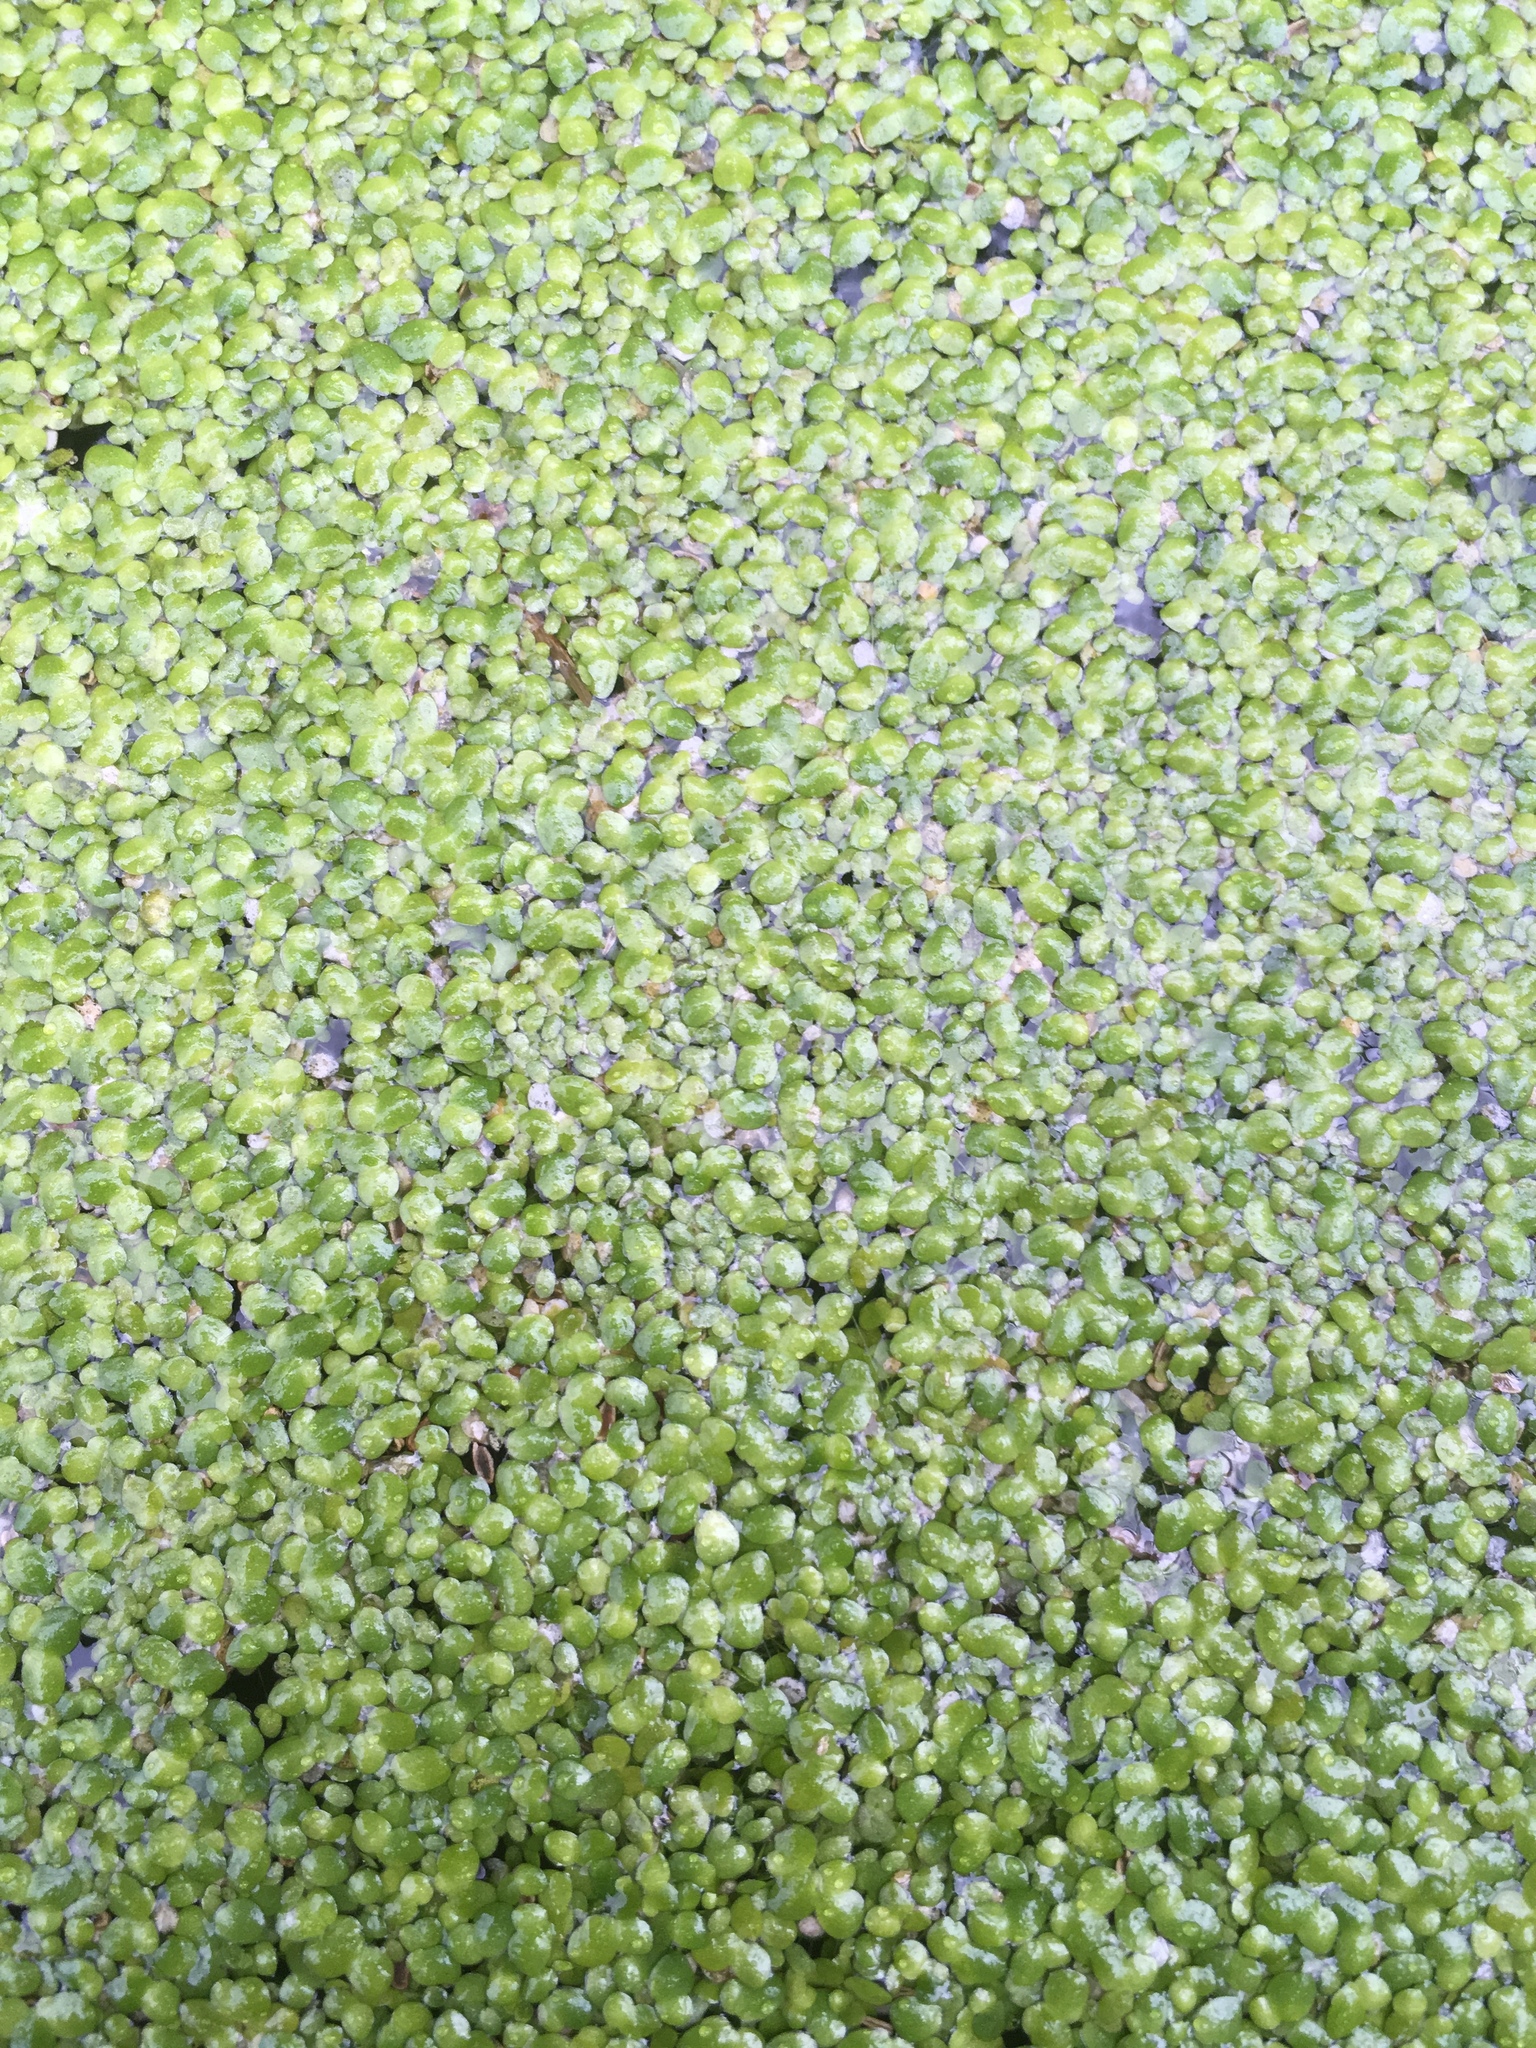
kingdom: Plantae
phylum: Tracheophyta
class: Liliopsida
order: Alismatales
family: Araceae
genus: Lemna
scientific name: Lemna minor
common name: Common duckweed
